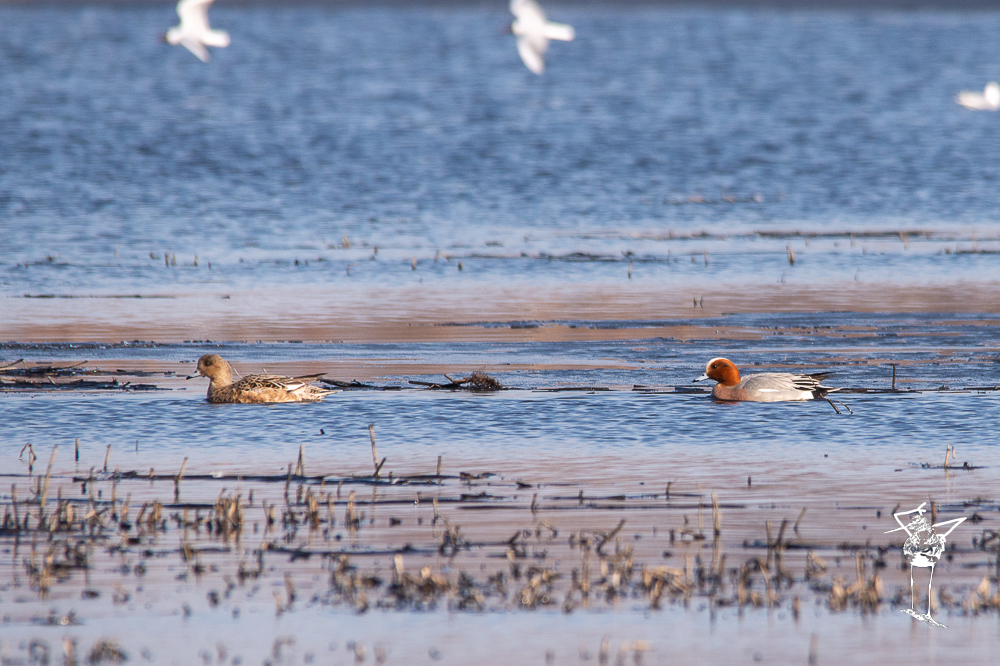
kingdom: Animalia
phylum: Chordata
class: Aves
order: Anseriformes
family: Anatidae
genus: Mareca
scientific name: Mareca penelope
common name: Eurasian wigeon
